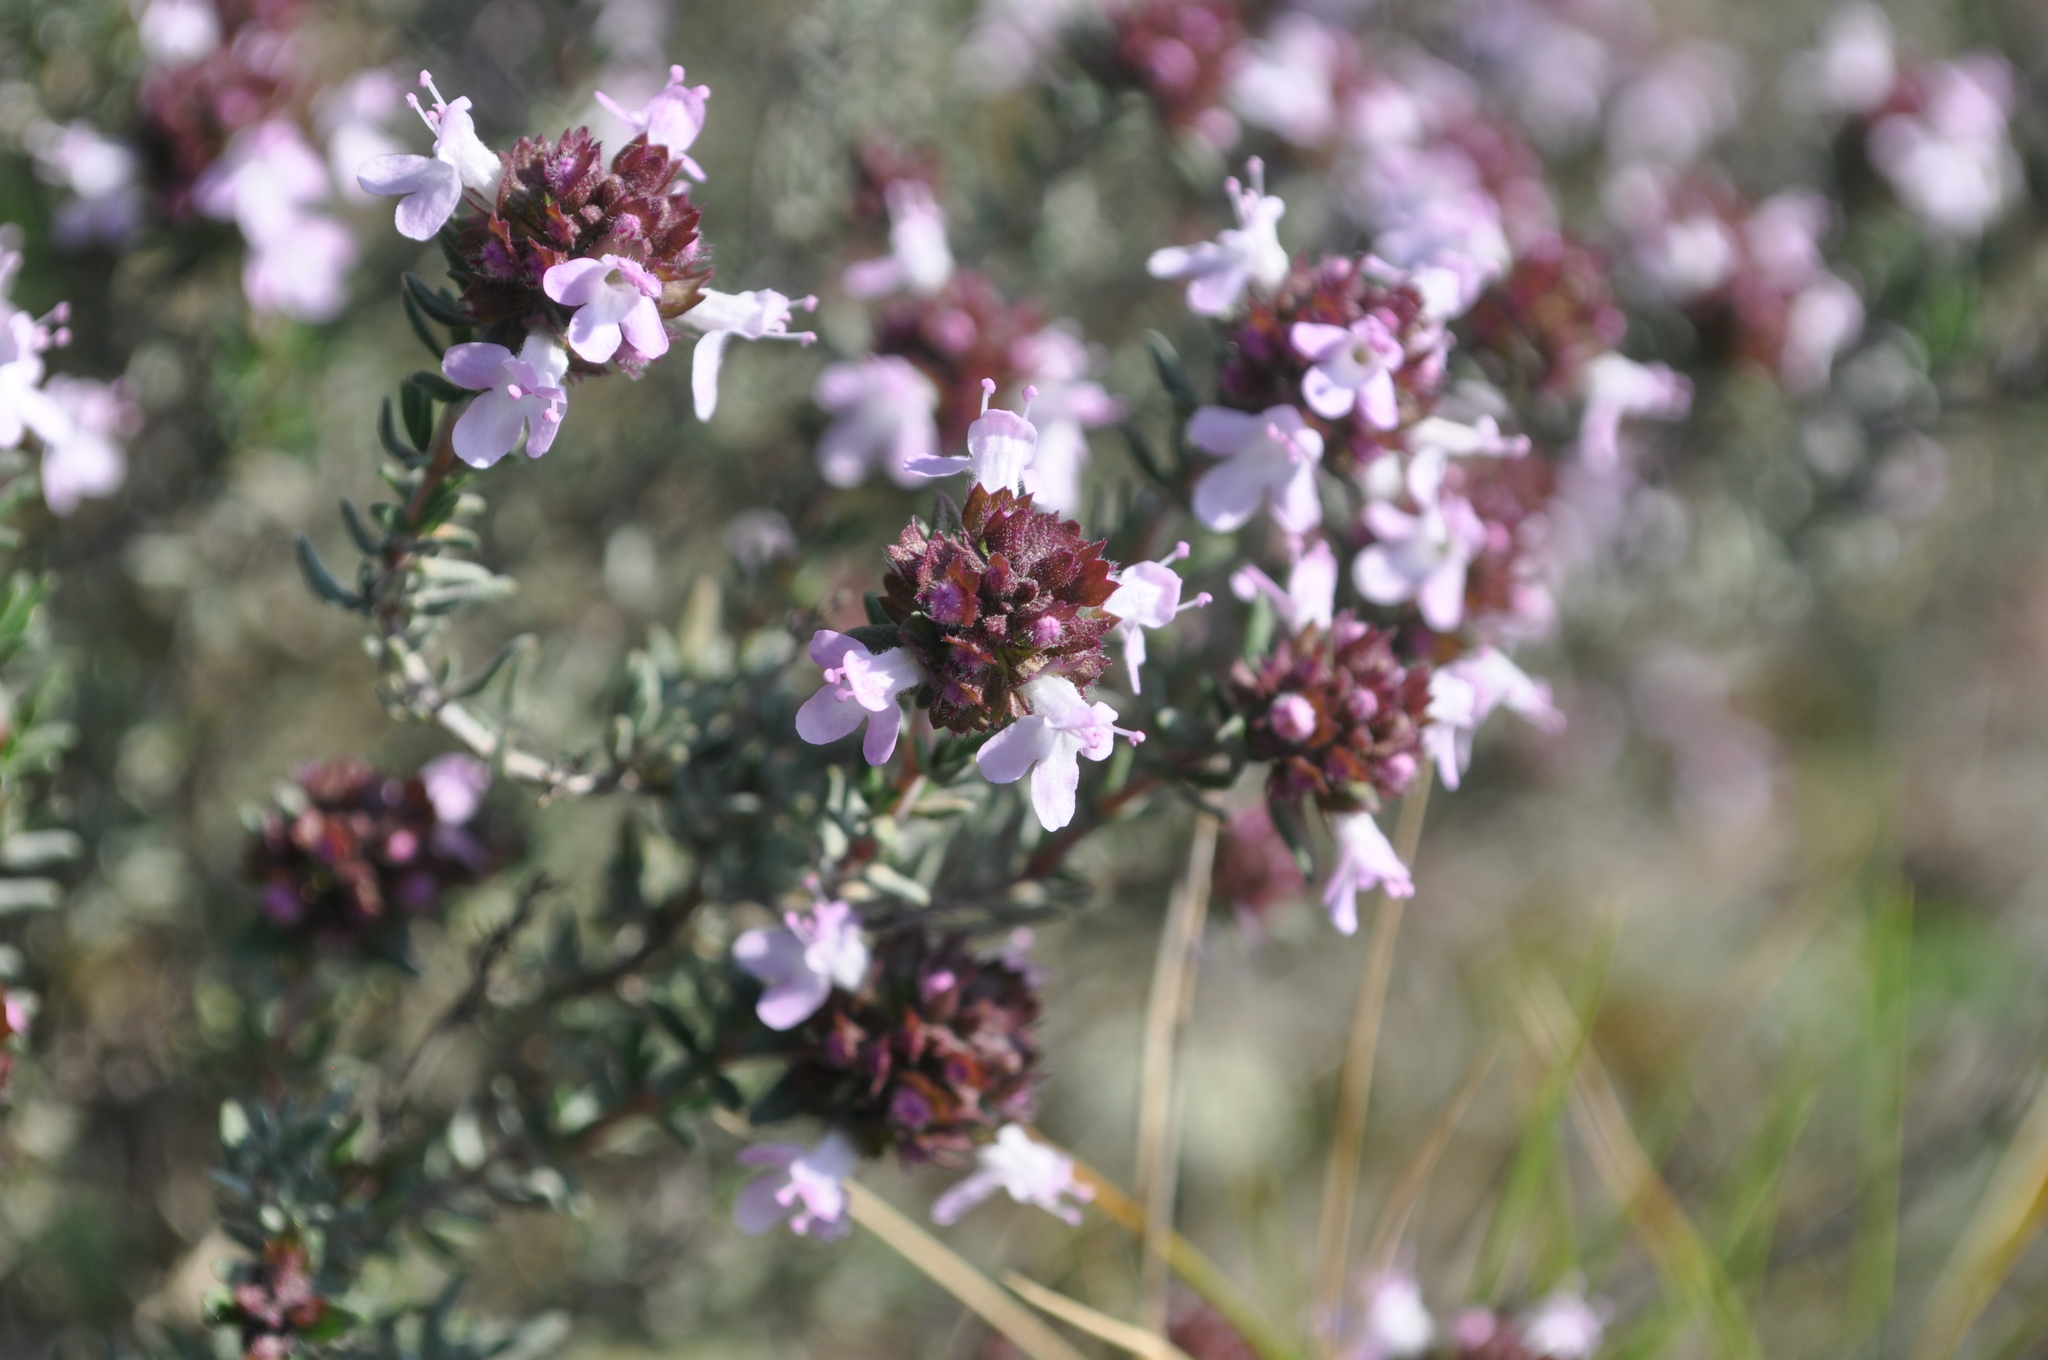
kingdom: Plantae
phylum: Tracheophyta
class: Magnoliopsida
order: Lamiales
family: Lamiaceae
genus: Thymus
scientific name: Thymus vulgaris
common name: Garden thyme
